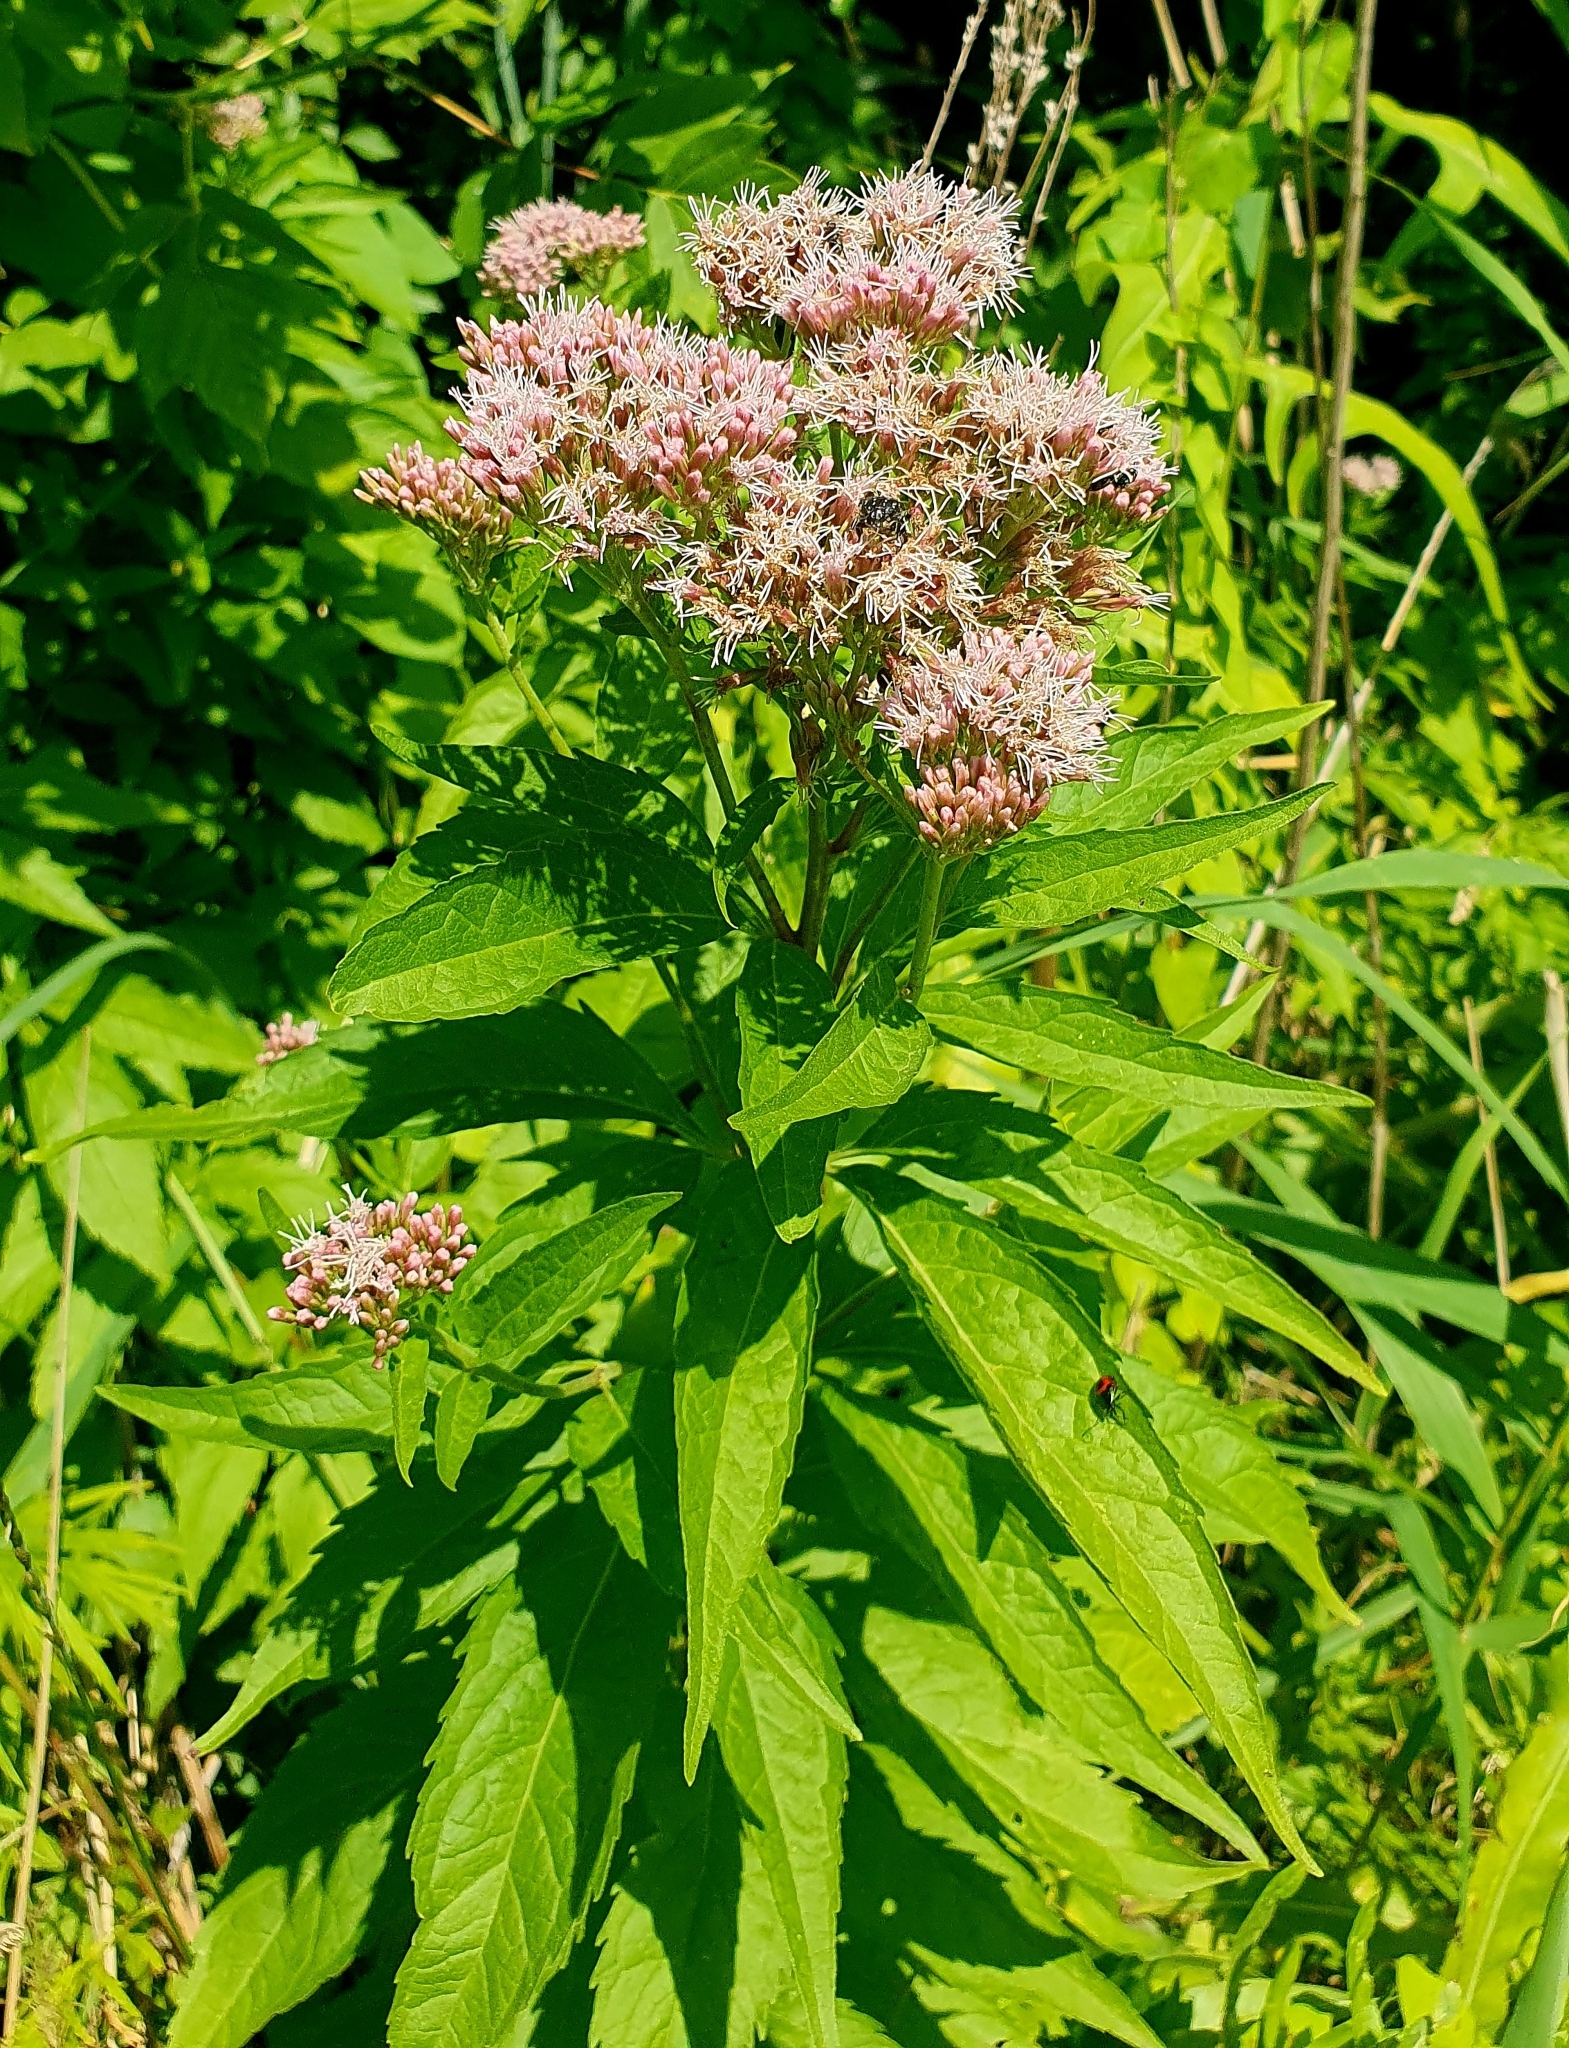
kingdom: Plantae
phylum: Tracheophyta
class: Magnoliopsida
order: Asterales
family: Asteraceae
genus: Eupatorium
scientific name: Eupatorium cannabinum
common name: Hemp-agrimony
